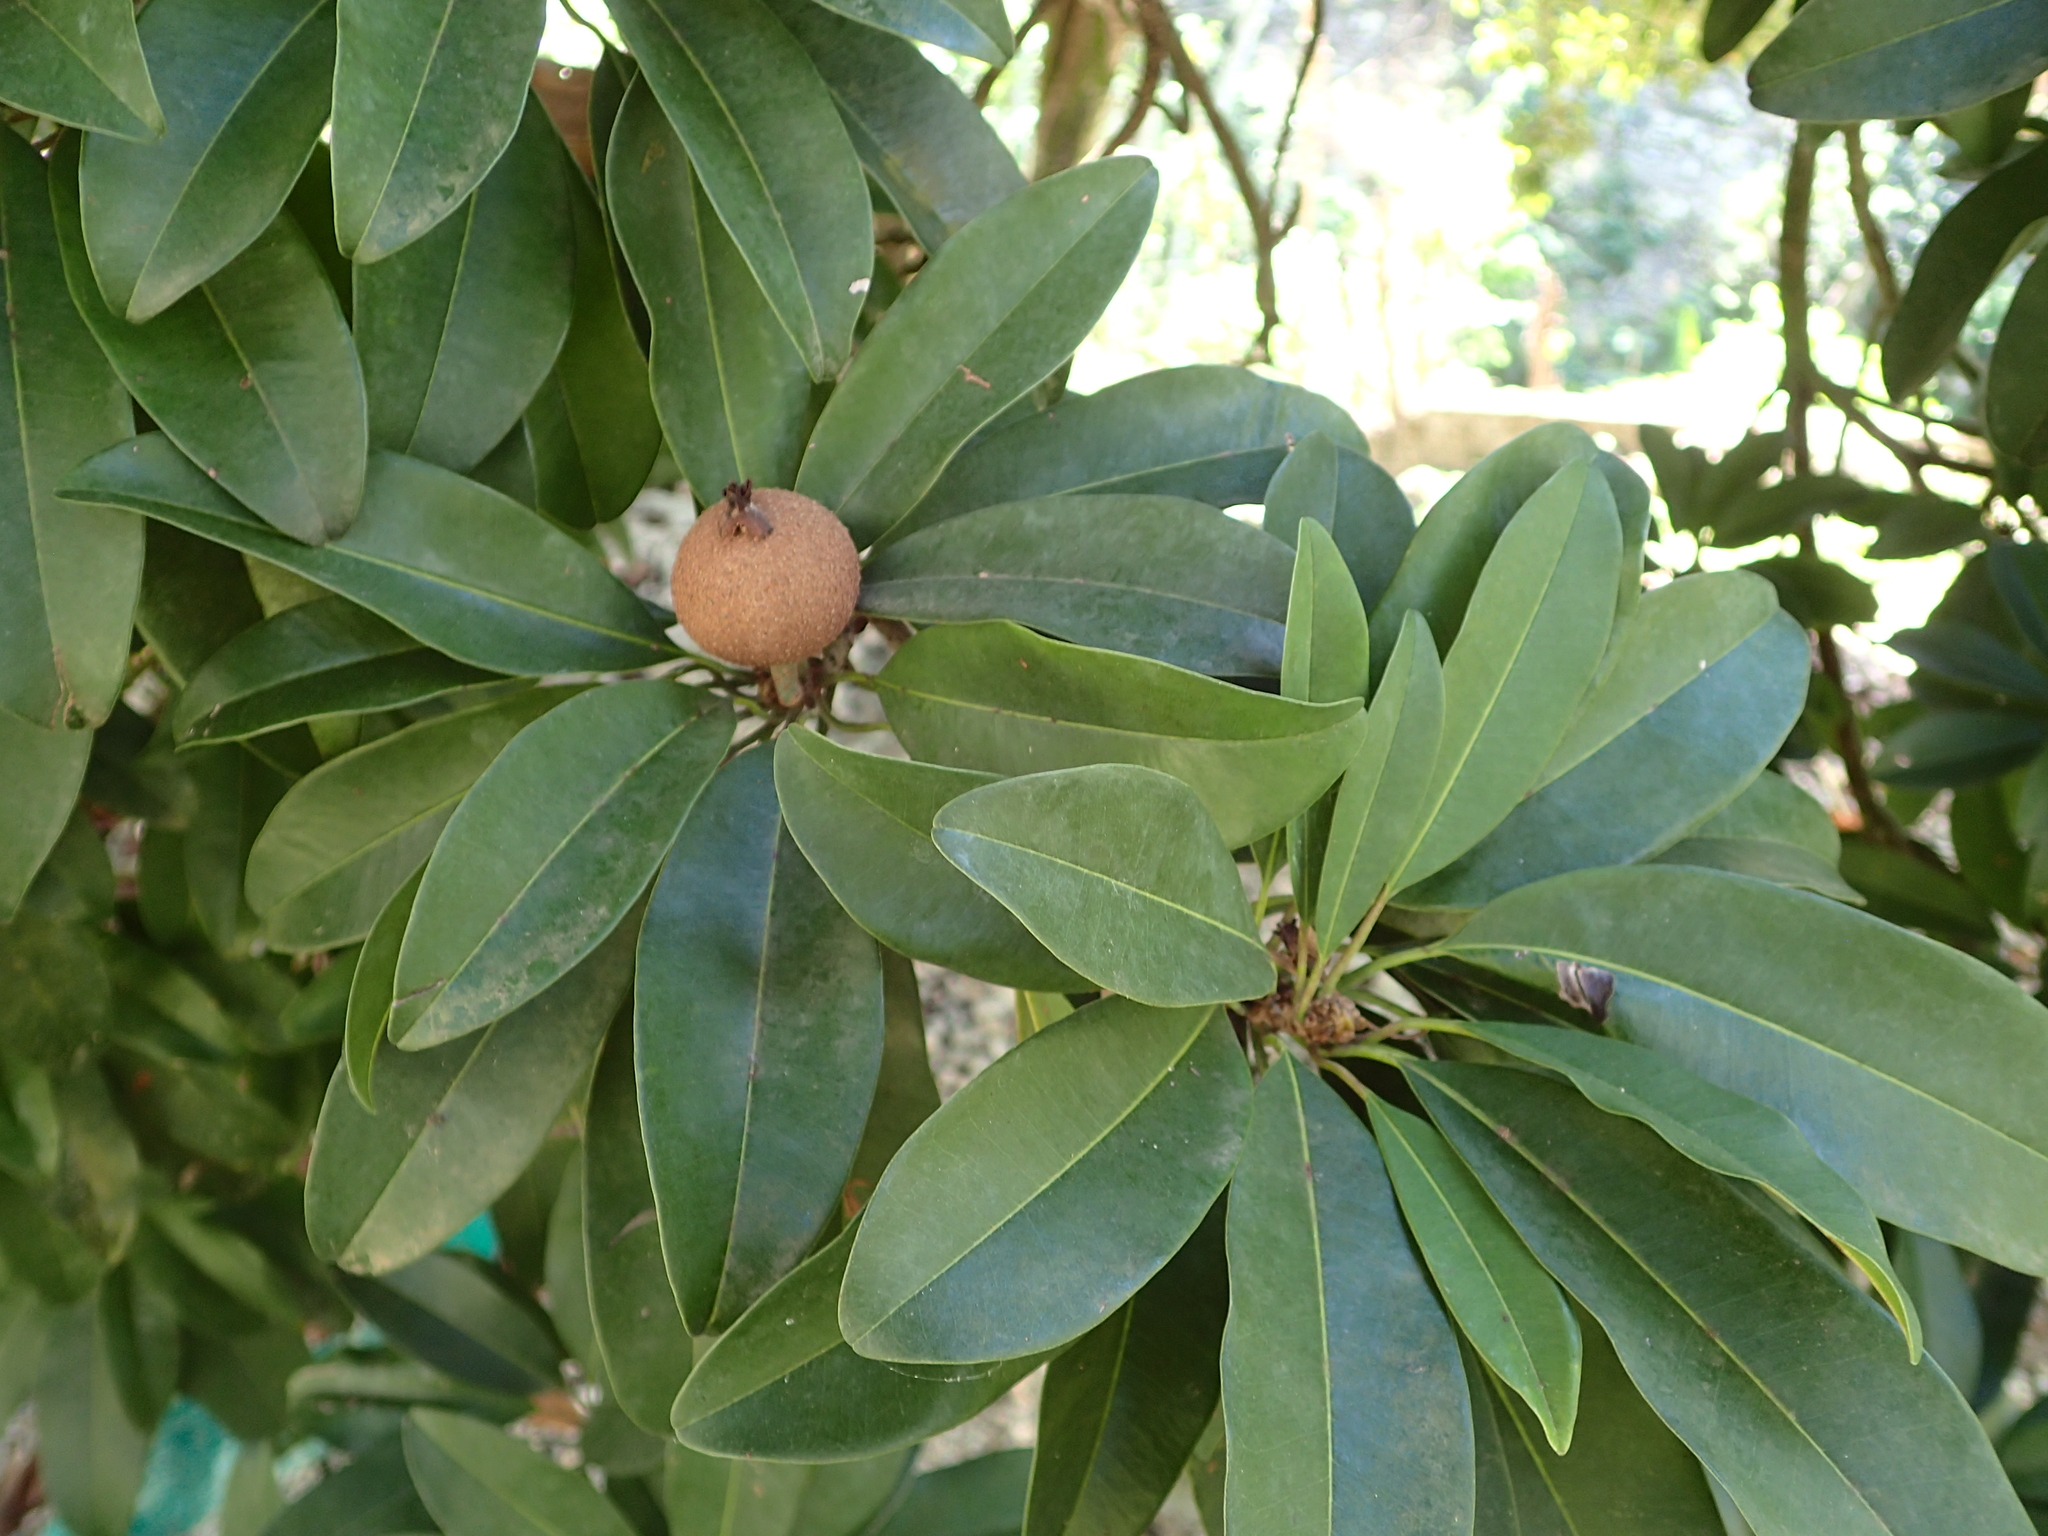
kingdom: Plantae
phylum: Tracheophyta
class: Magnoliopsida
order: Ericales
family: Sapotaceae
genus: Manilkara
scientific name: Manilkara zapota
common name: Sapodilla
